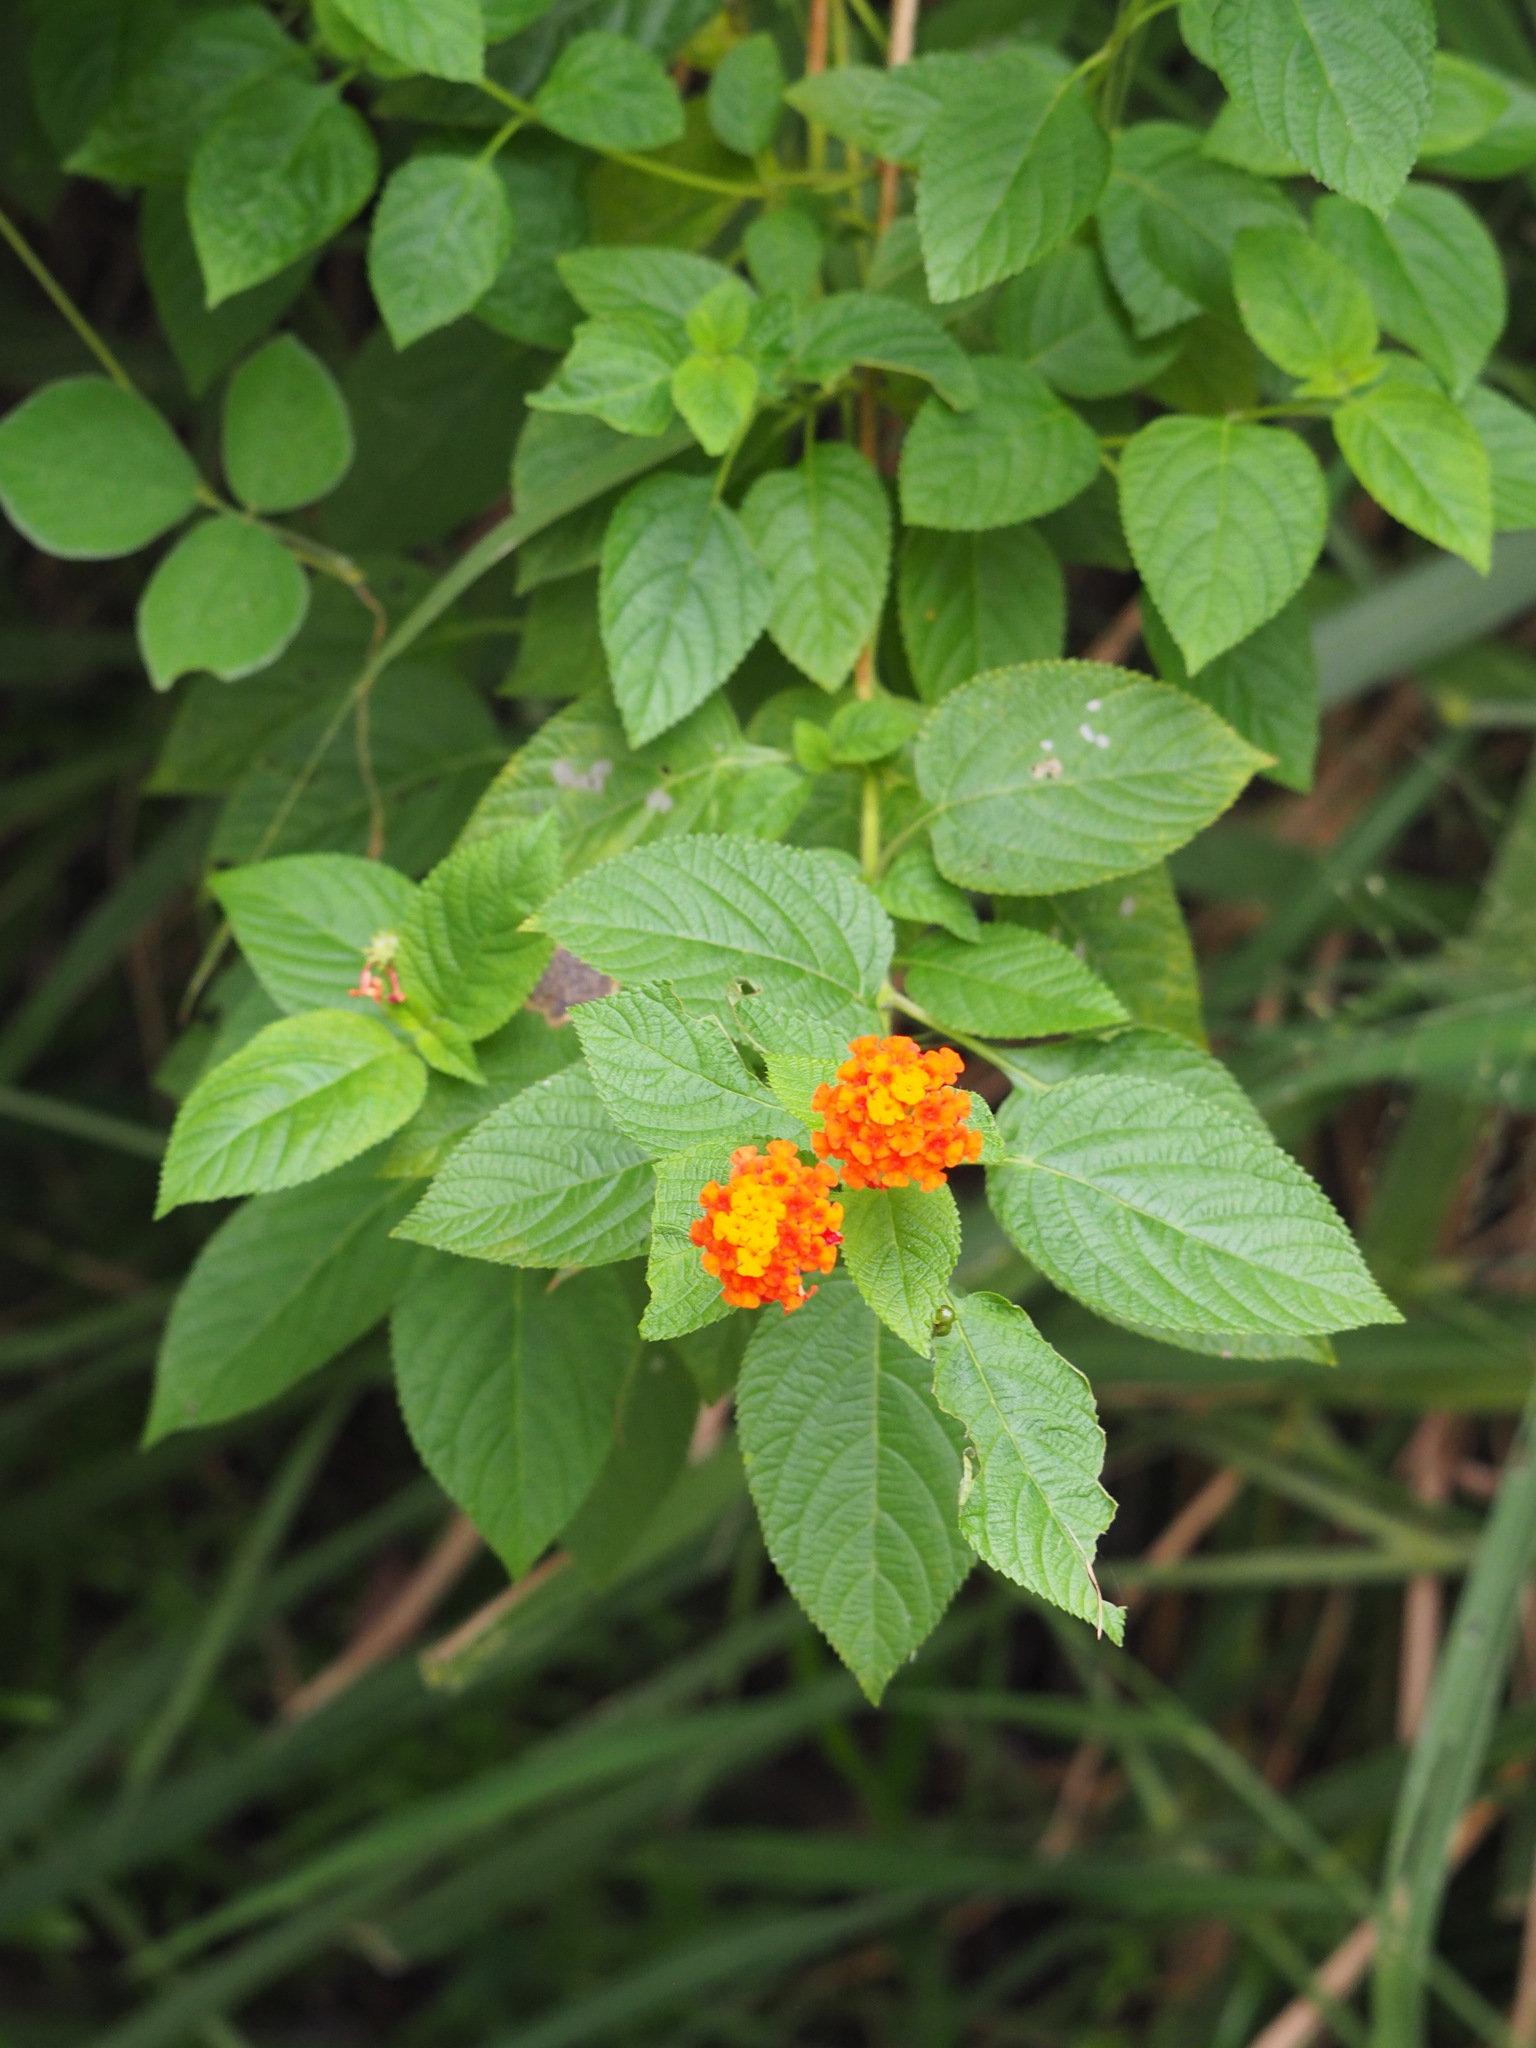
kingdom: Plantae
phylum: Tracheophyta
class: Magnoliopsida
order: Lamiales
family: Verbenaceae
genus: Lantana
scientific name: Lantana camara
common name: Lantana
